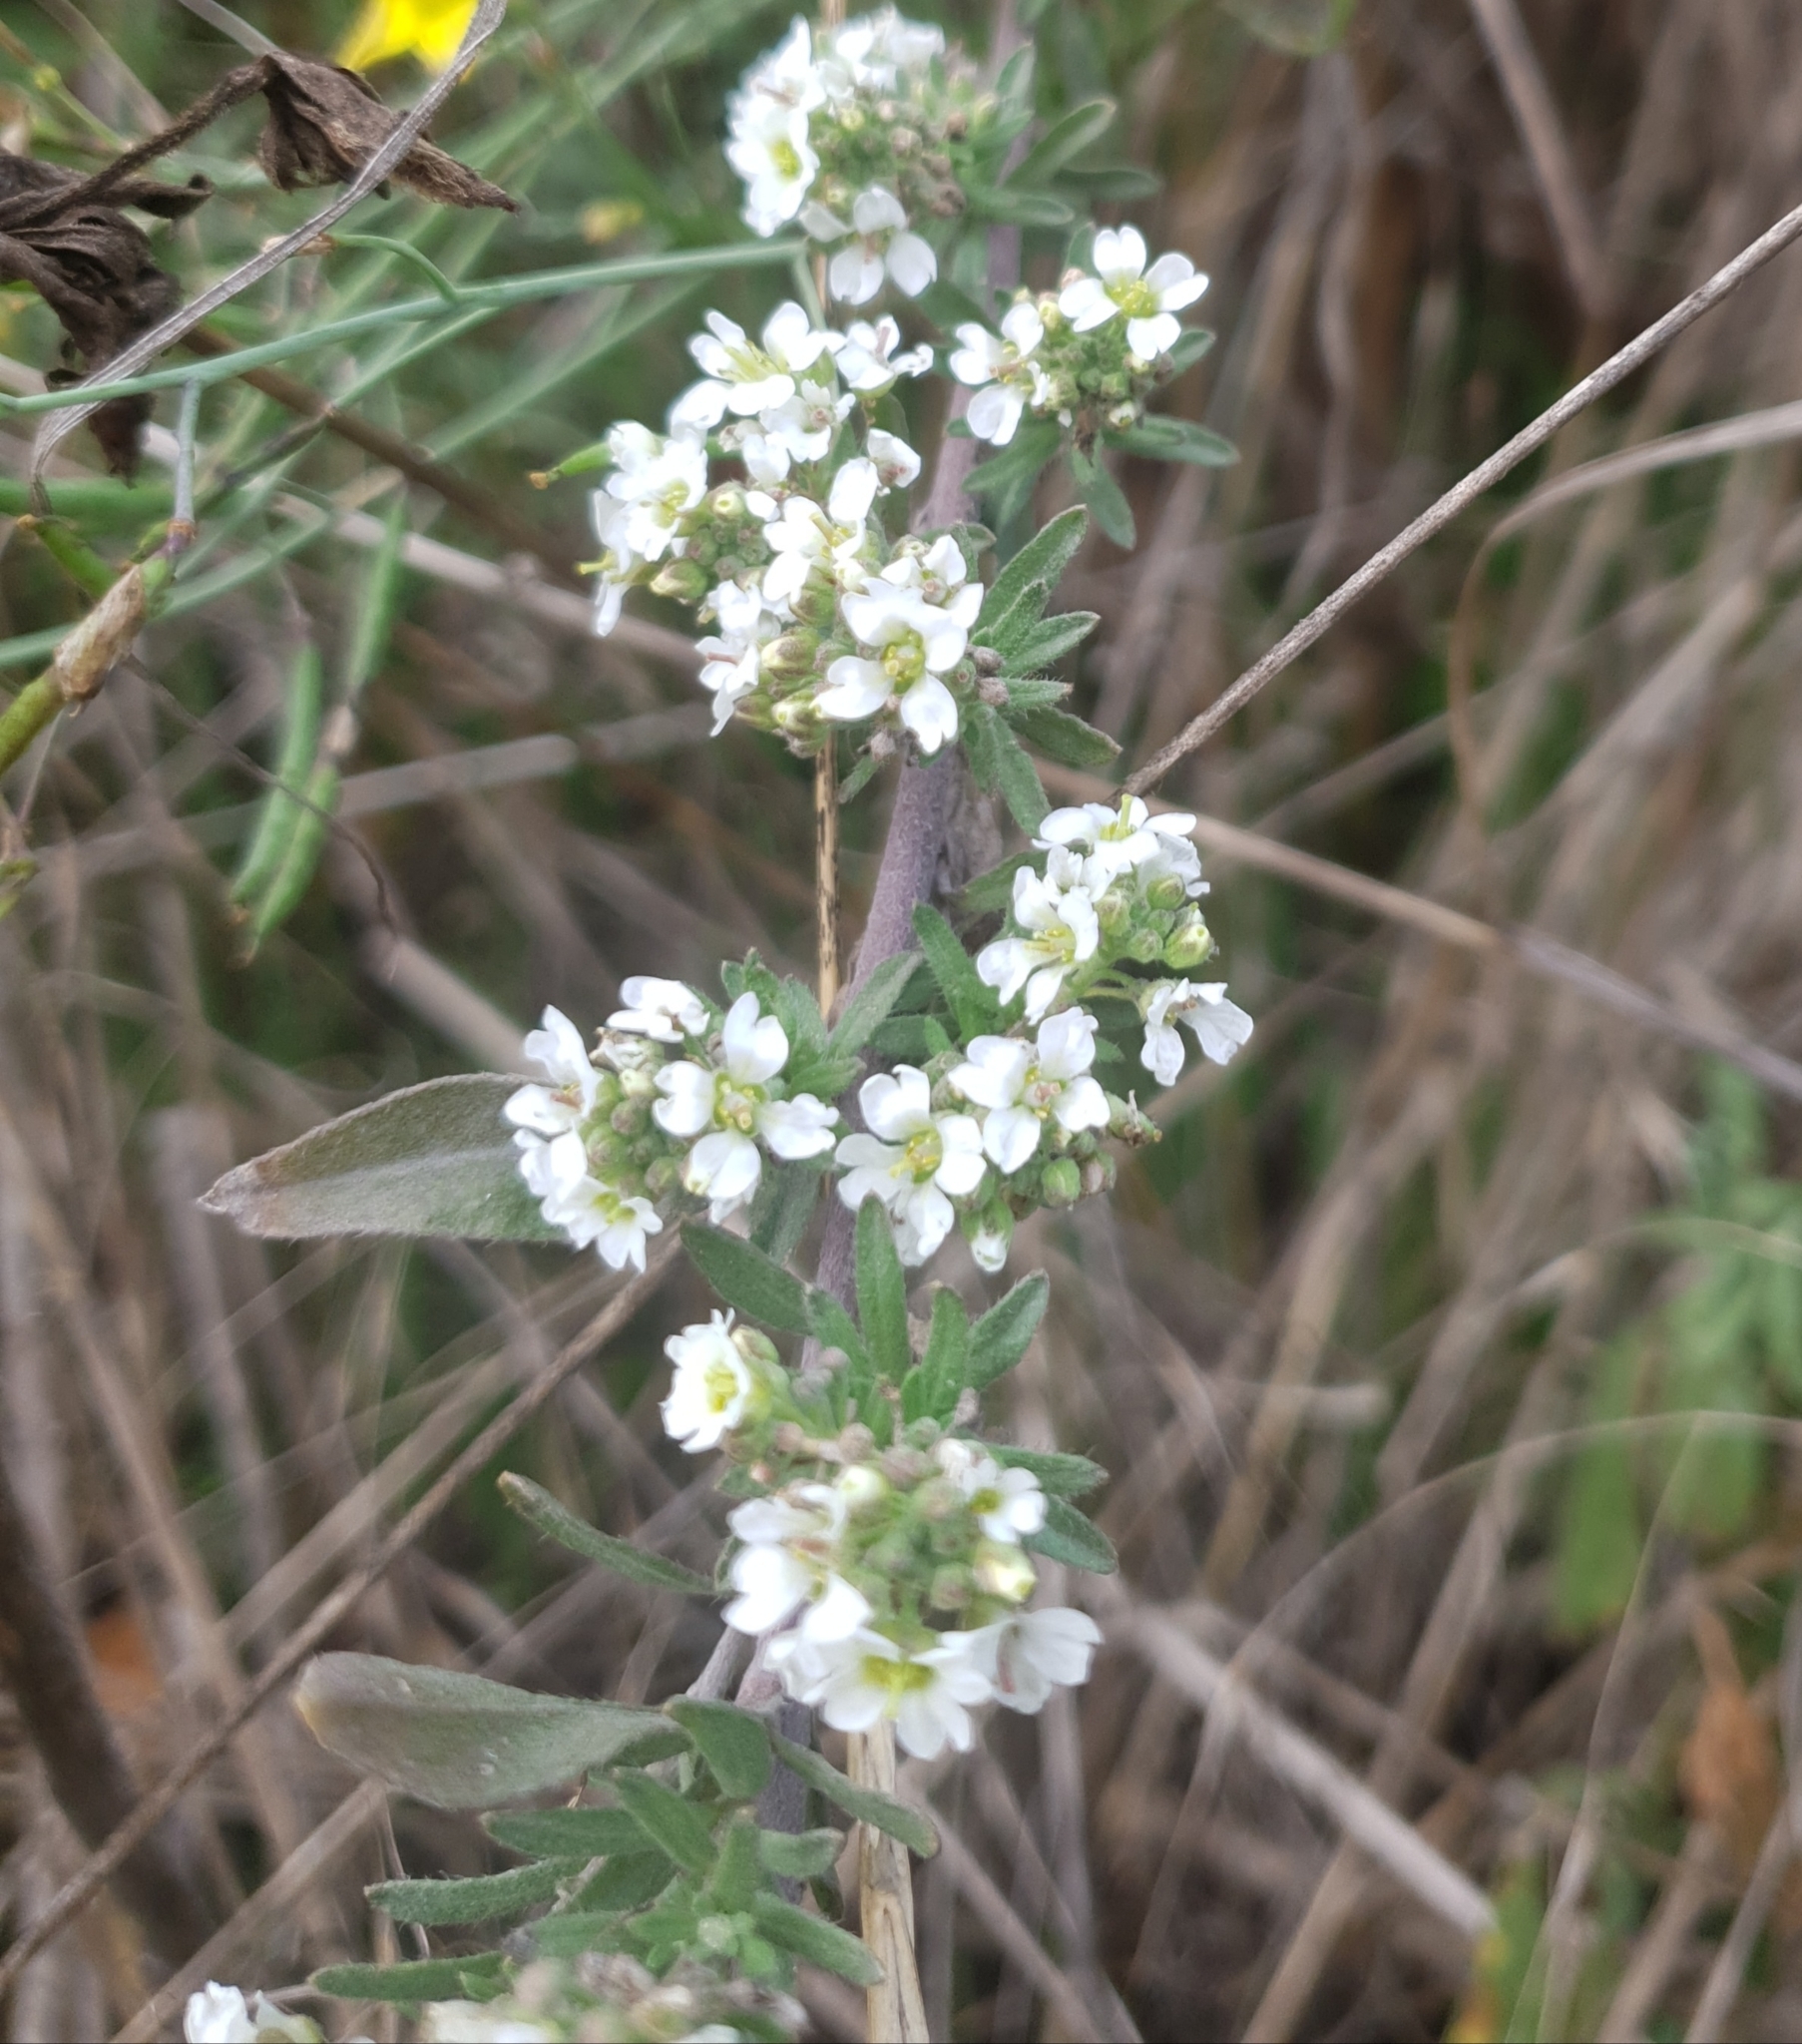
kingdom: Plantae
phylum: Tracheophyta
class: Magnoliopsida
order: Brassicales
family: Brassicaceae
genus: Berteroa
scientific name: Berteroa incana
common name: Hoary alison
